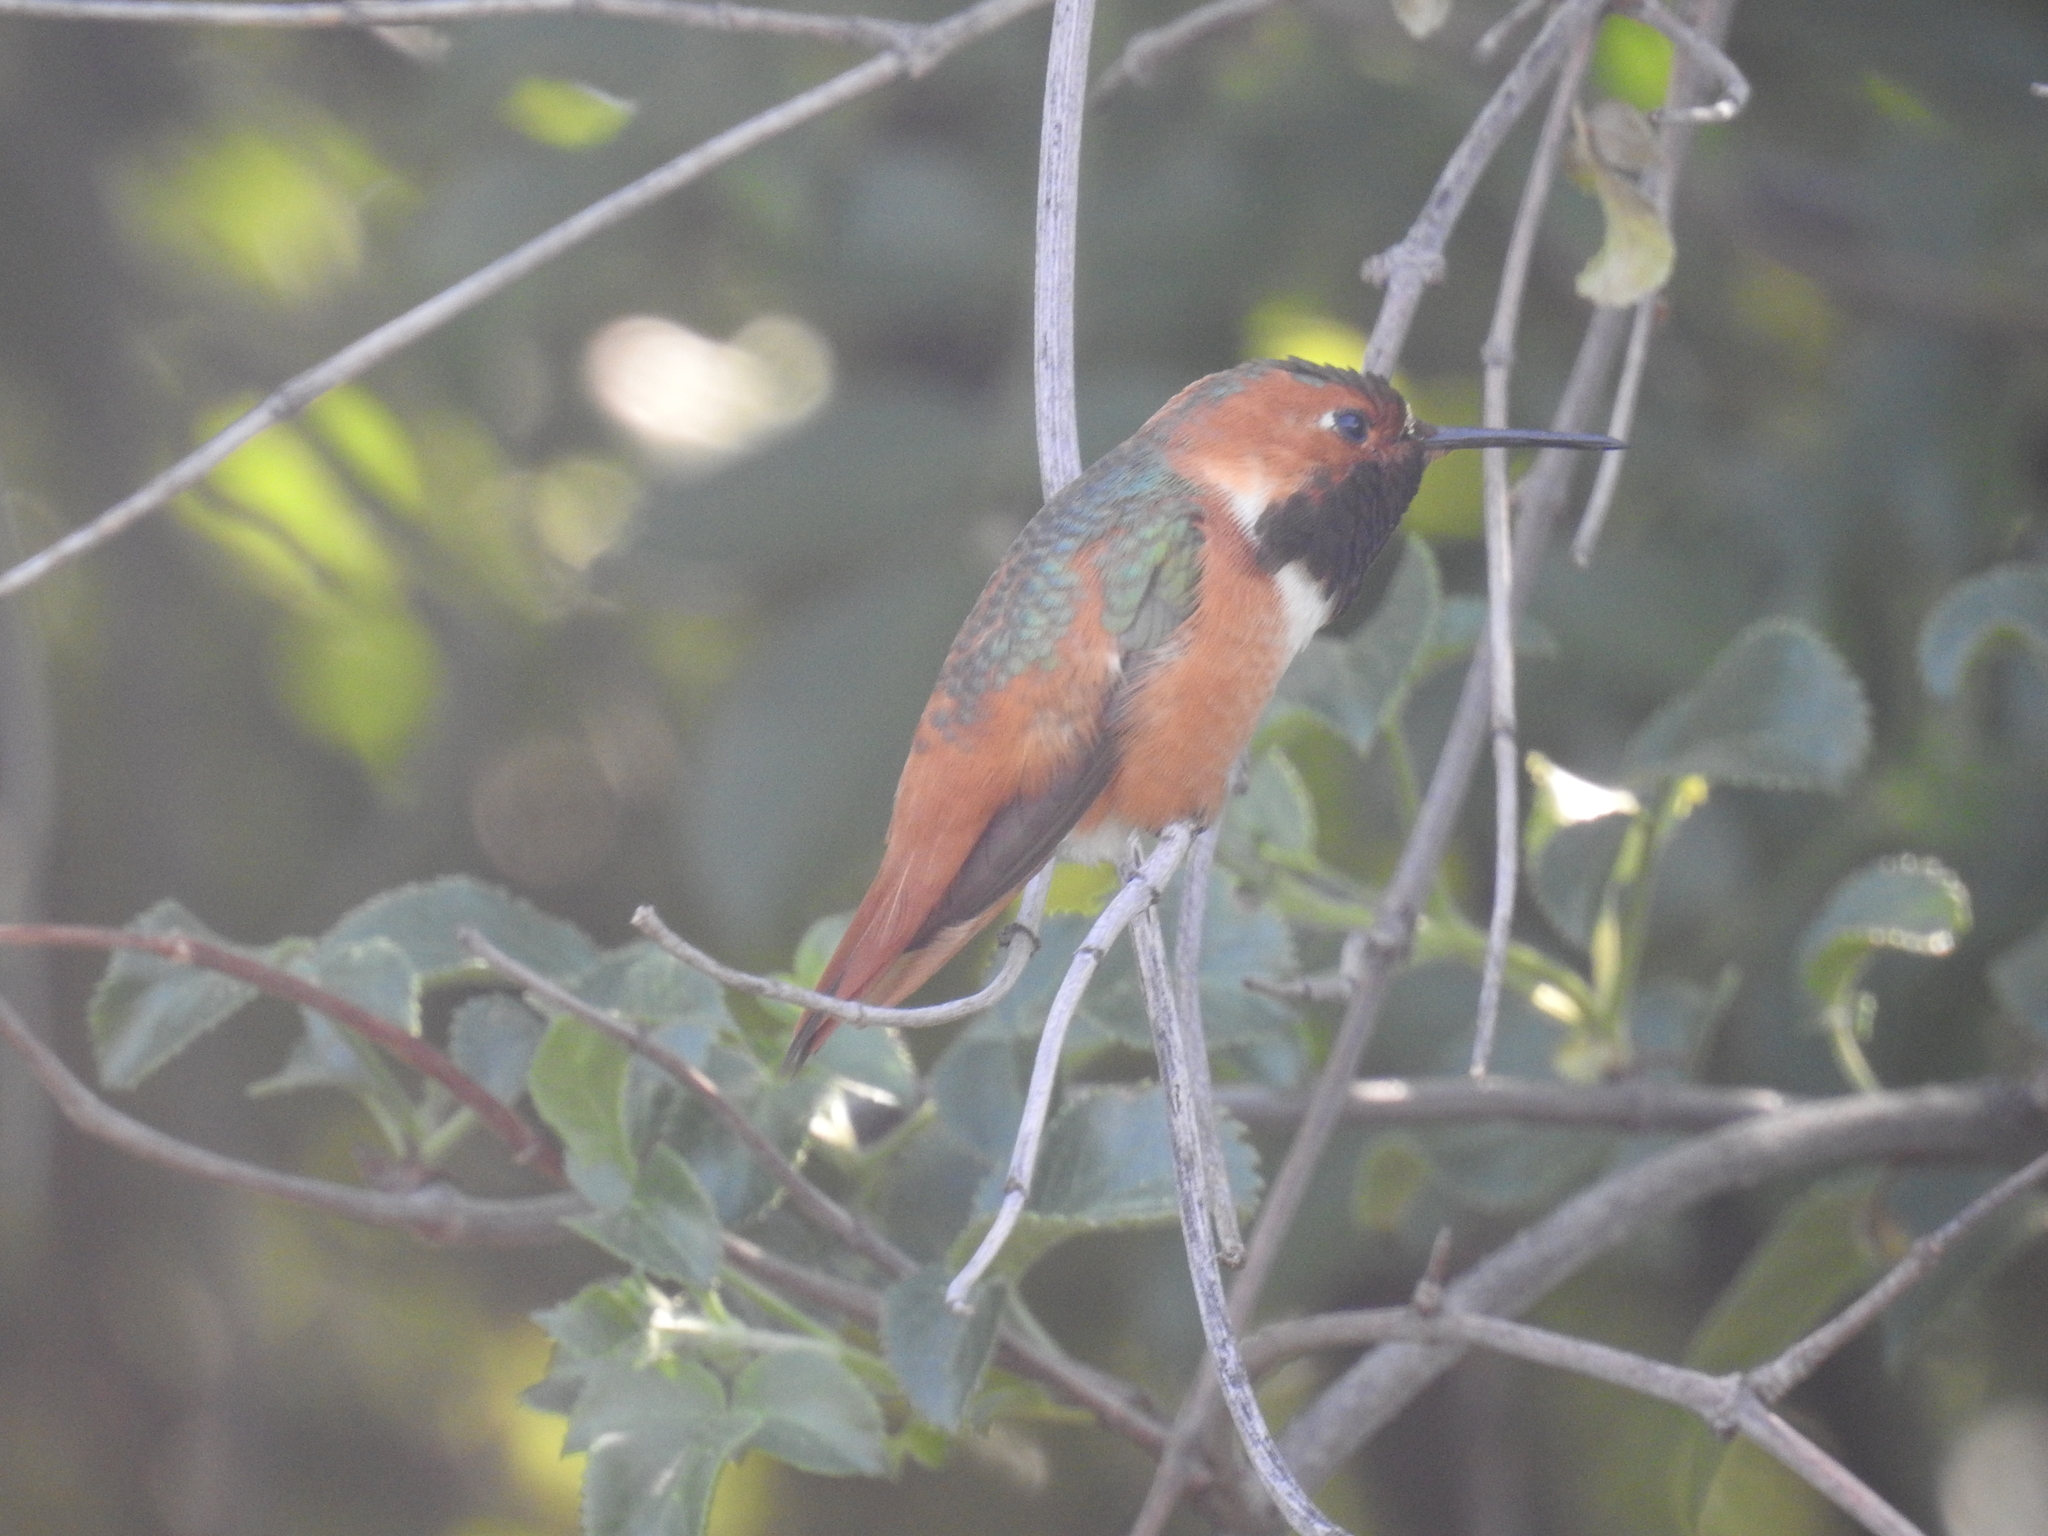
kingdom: Animalia
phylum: Chordata
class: Aves
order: Apodiformes
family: Trochilidae
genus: Selasphorus
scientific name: Selasphorus sasin
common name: Allen's hummingbird
